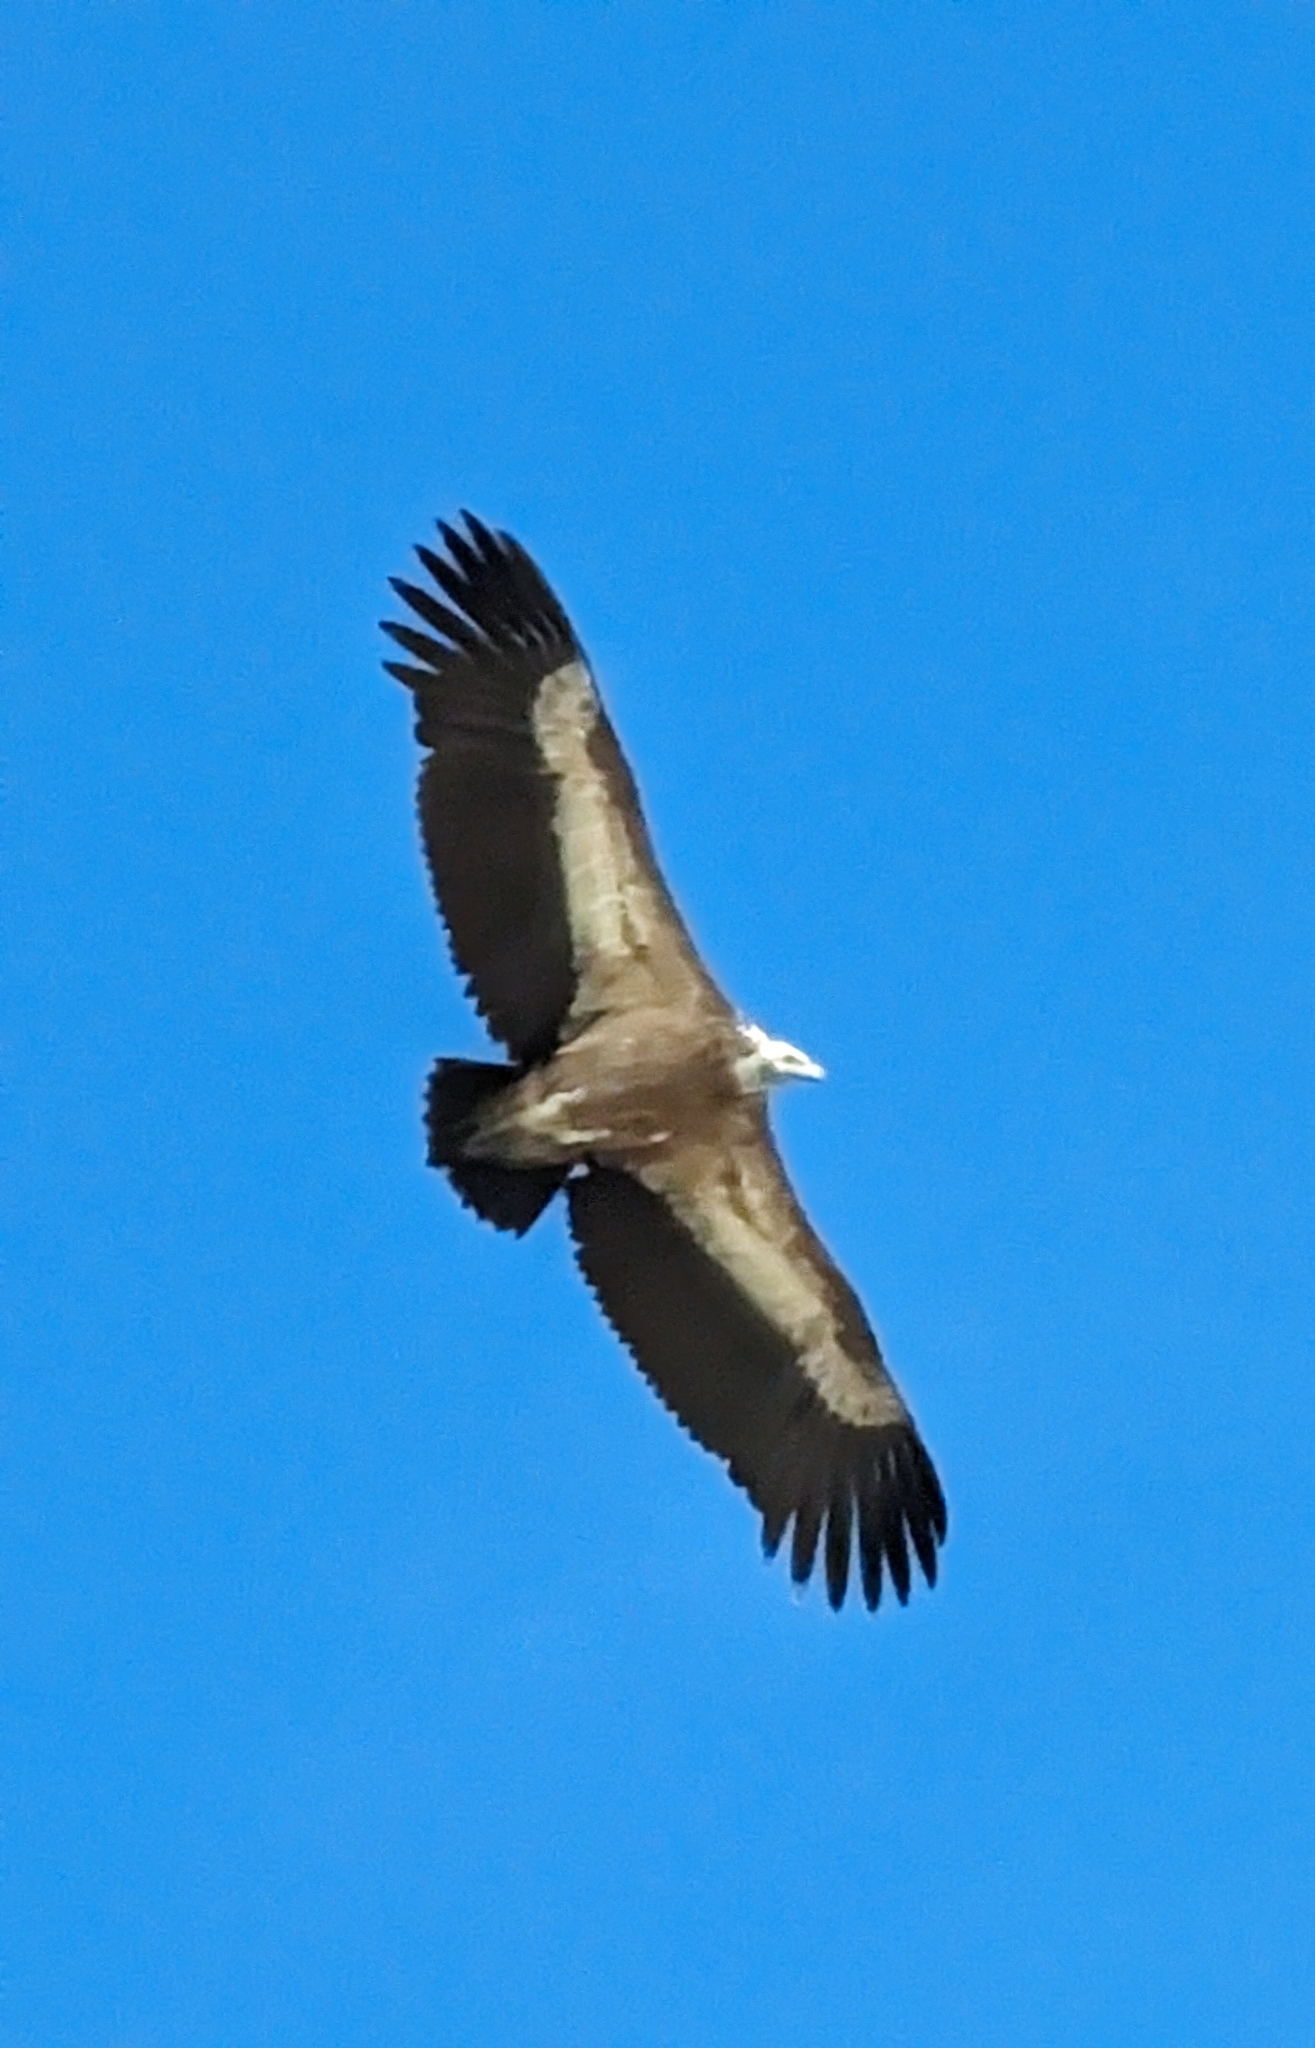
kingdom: Animalia
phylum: Chordata
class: Aves
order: Accipitriformes
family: Accipitridae
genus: Gyps
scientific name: Gyps fulvus
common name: Griffon vulture
